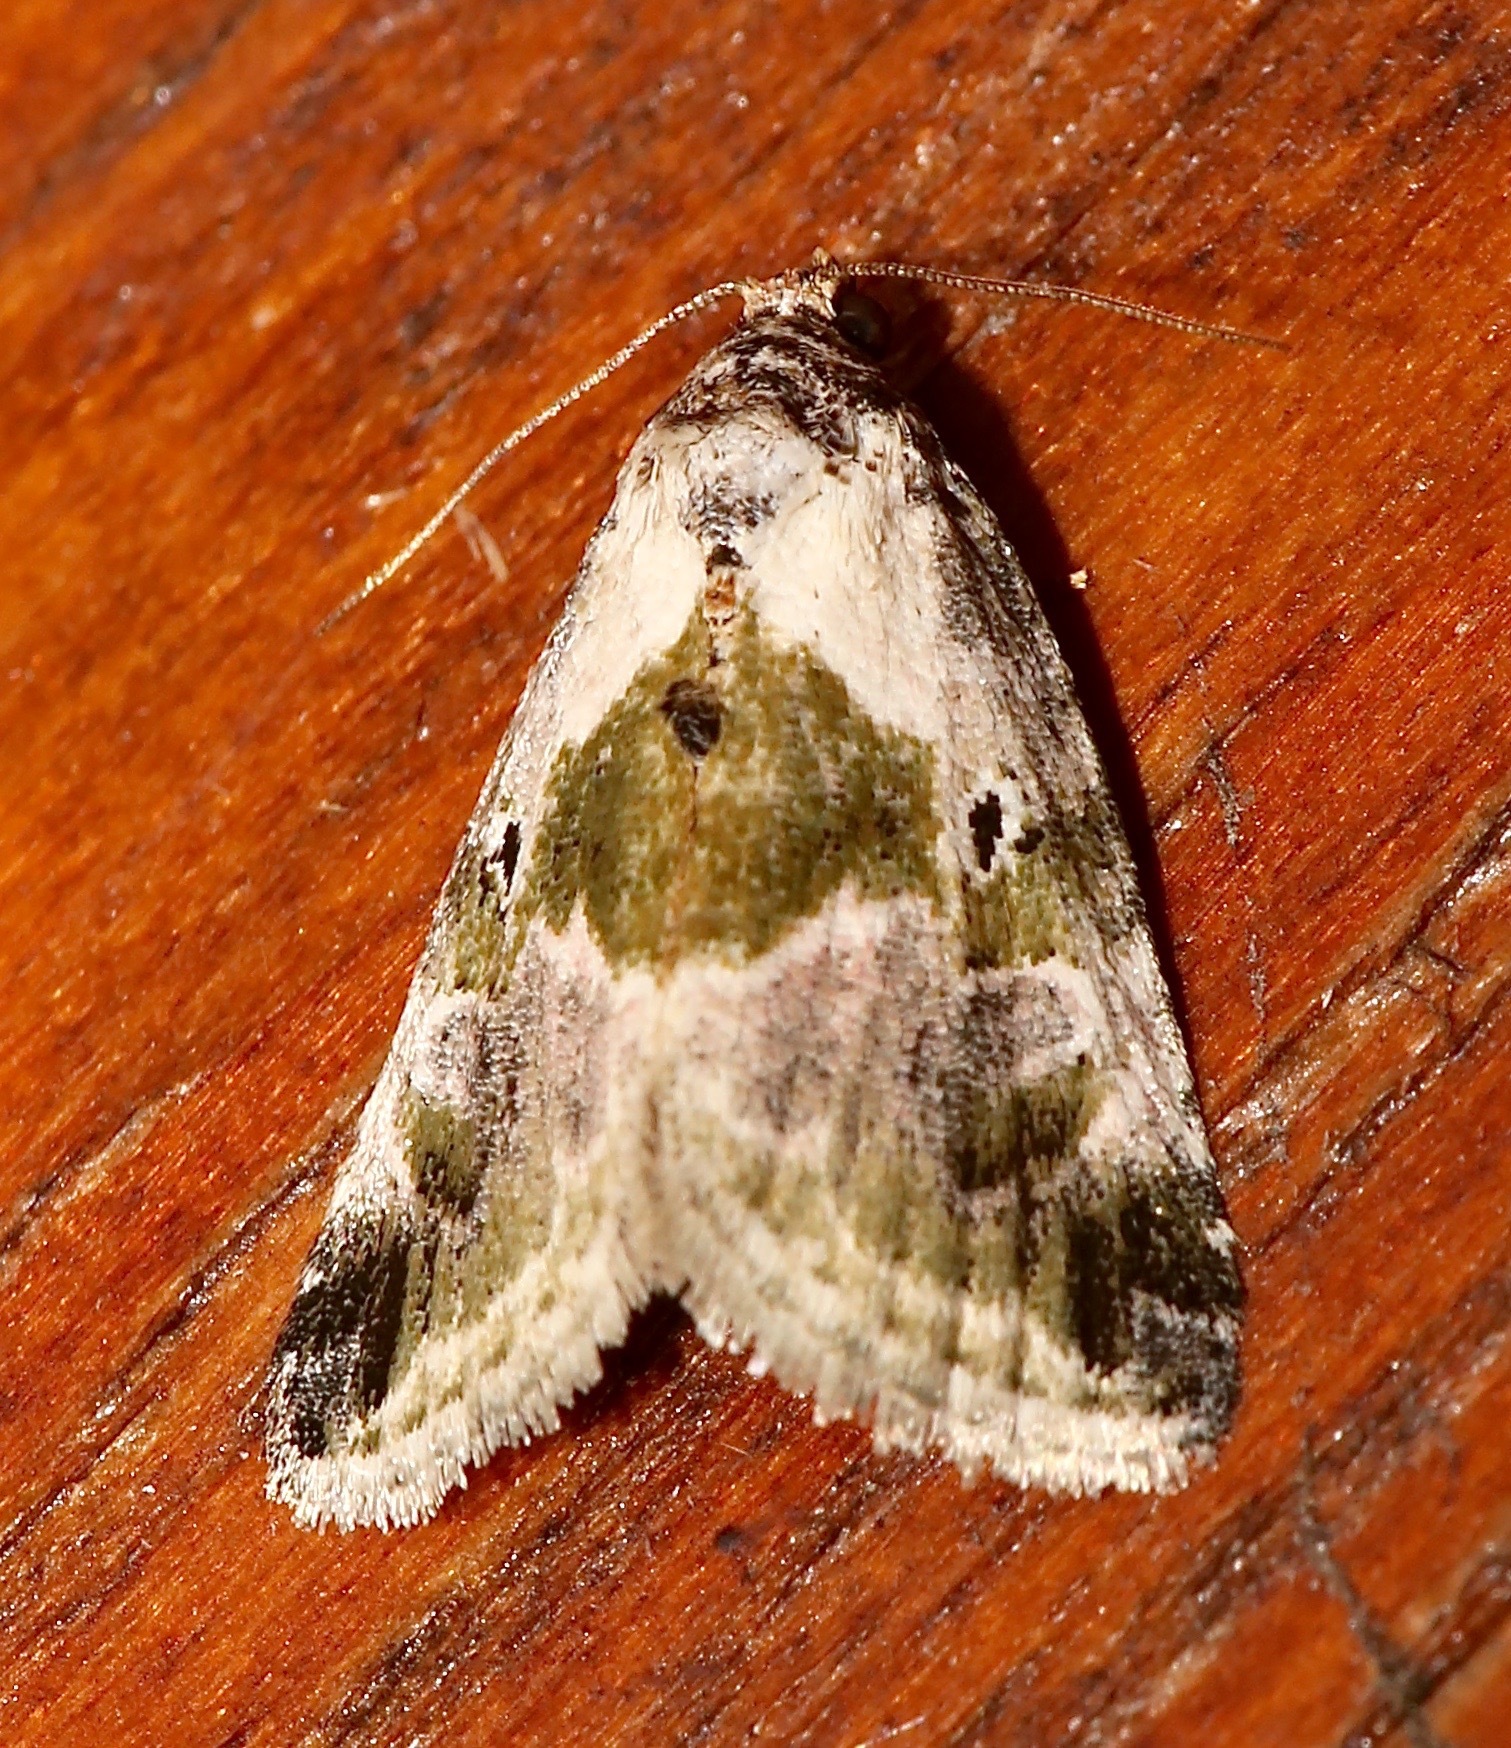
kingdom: Animalia
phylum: Arthropoda
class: Insecta
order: Lepidoptera
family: Noctuidae
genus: Maliattha
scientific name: Maliattha synochitis
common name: Black-dotted glyph
